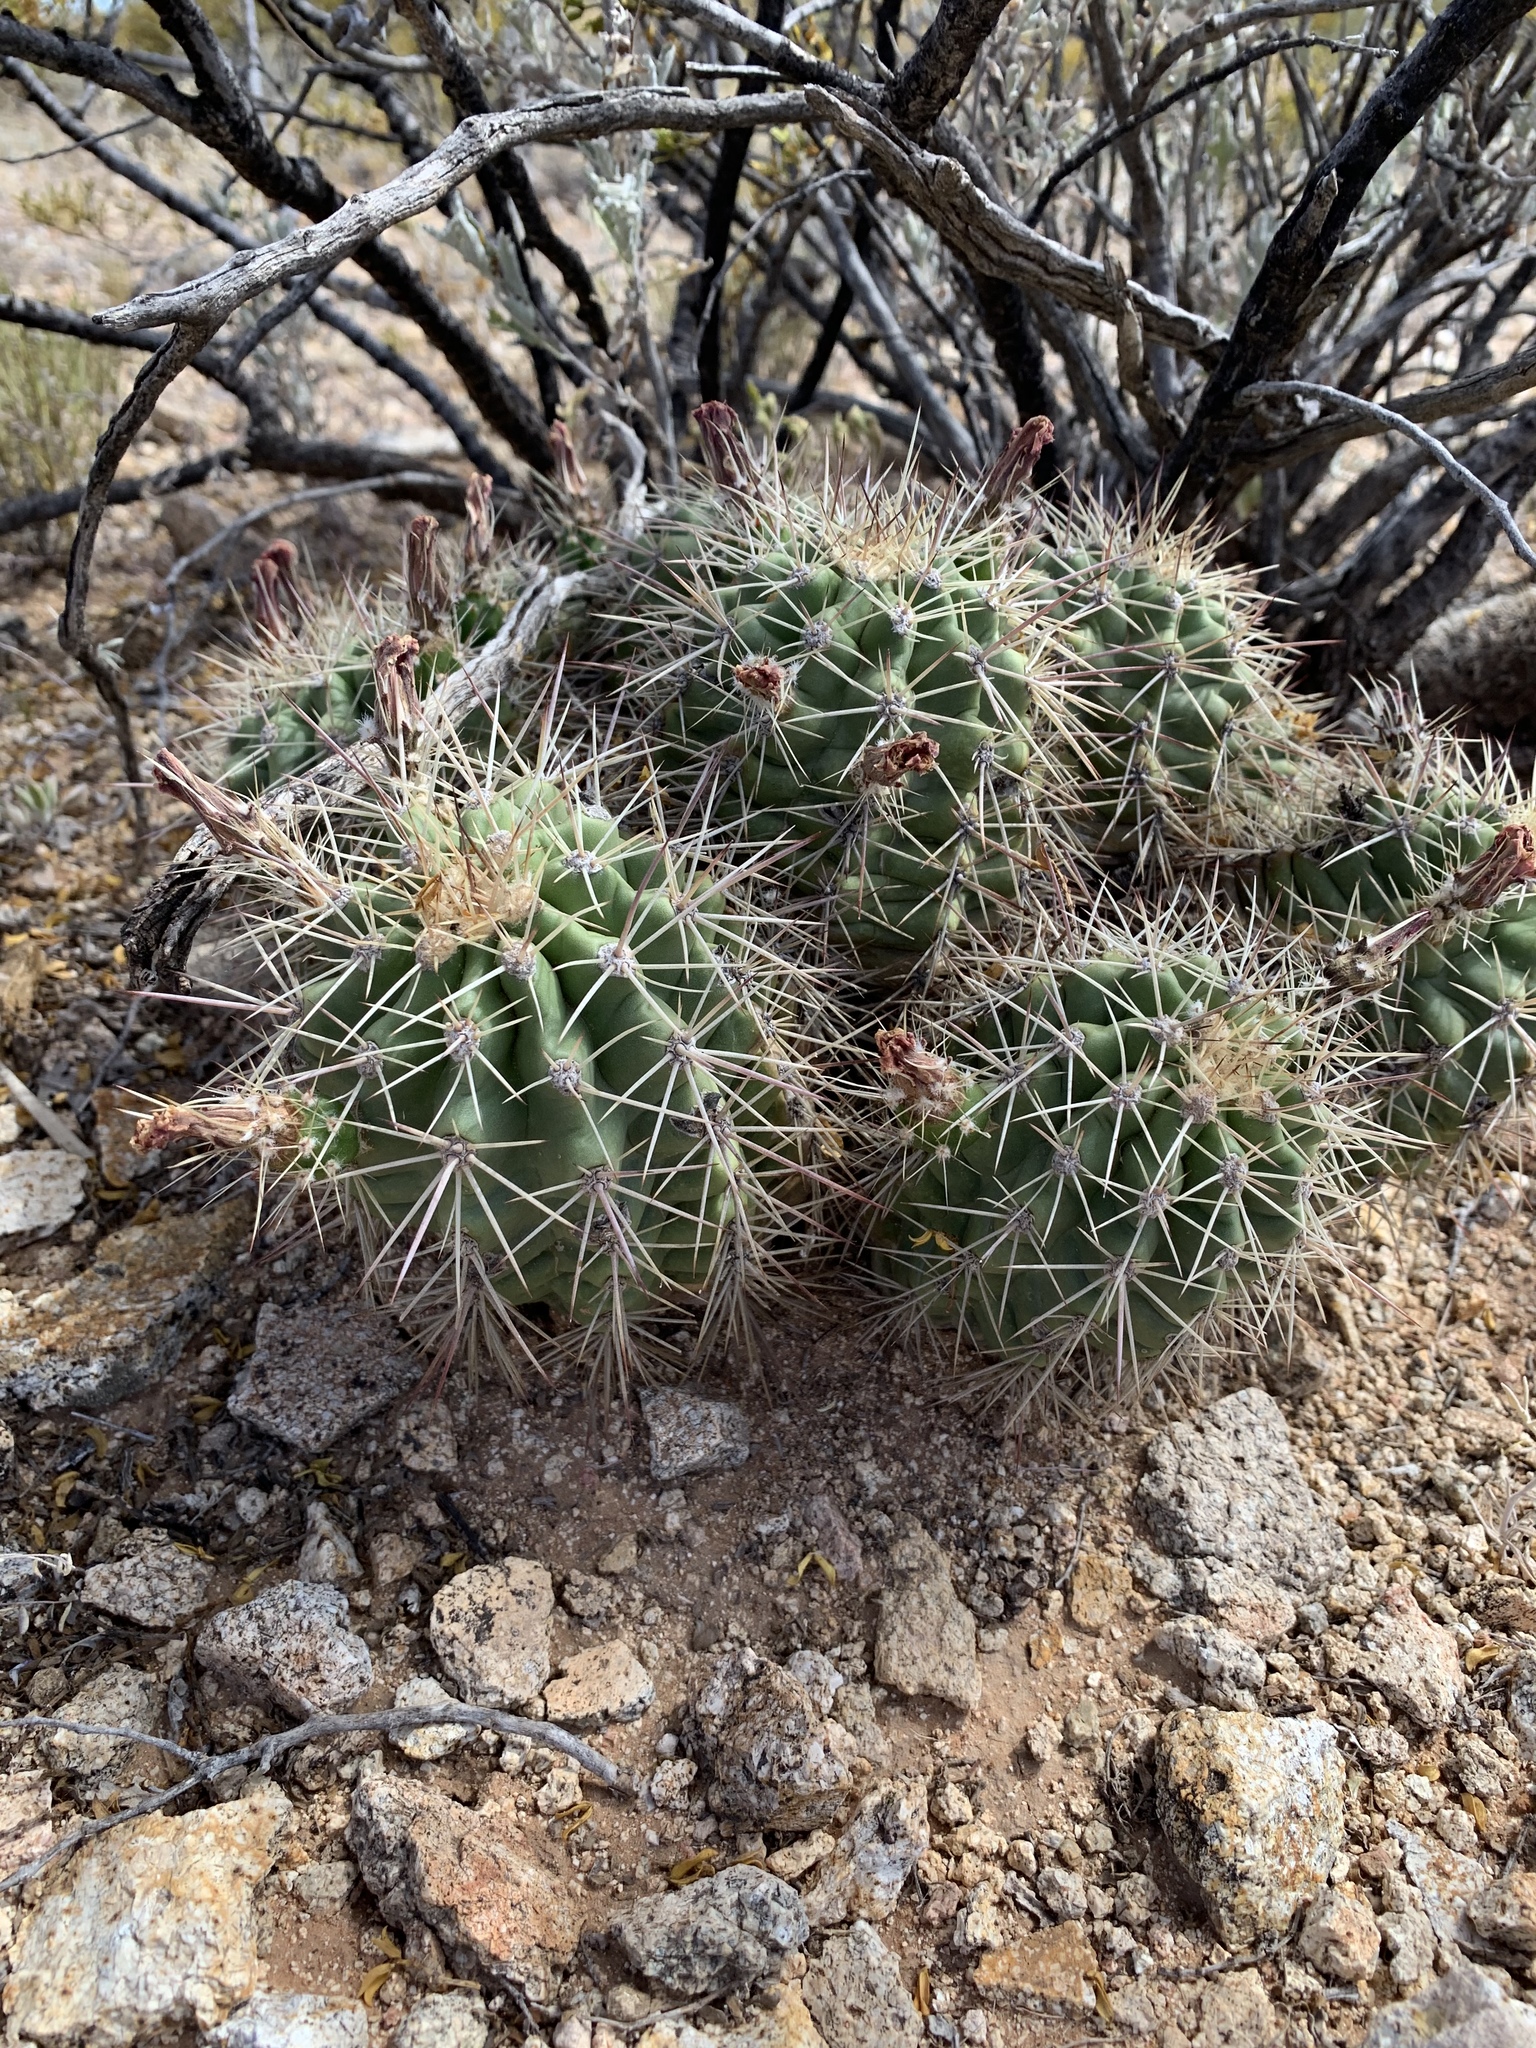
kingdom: Plantae
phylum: Tracheophyta
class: Magnoliopsida
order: Caryophyllales
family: Cactaceae
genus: Echinocereus
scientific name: Echinocereus coccineus
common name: Scarlet hedgehog cactus
